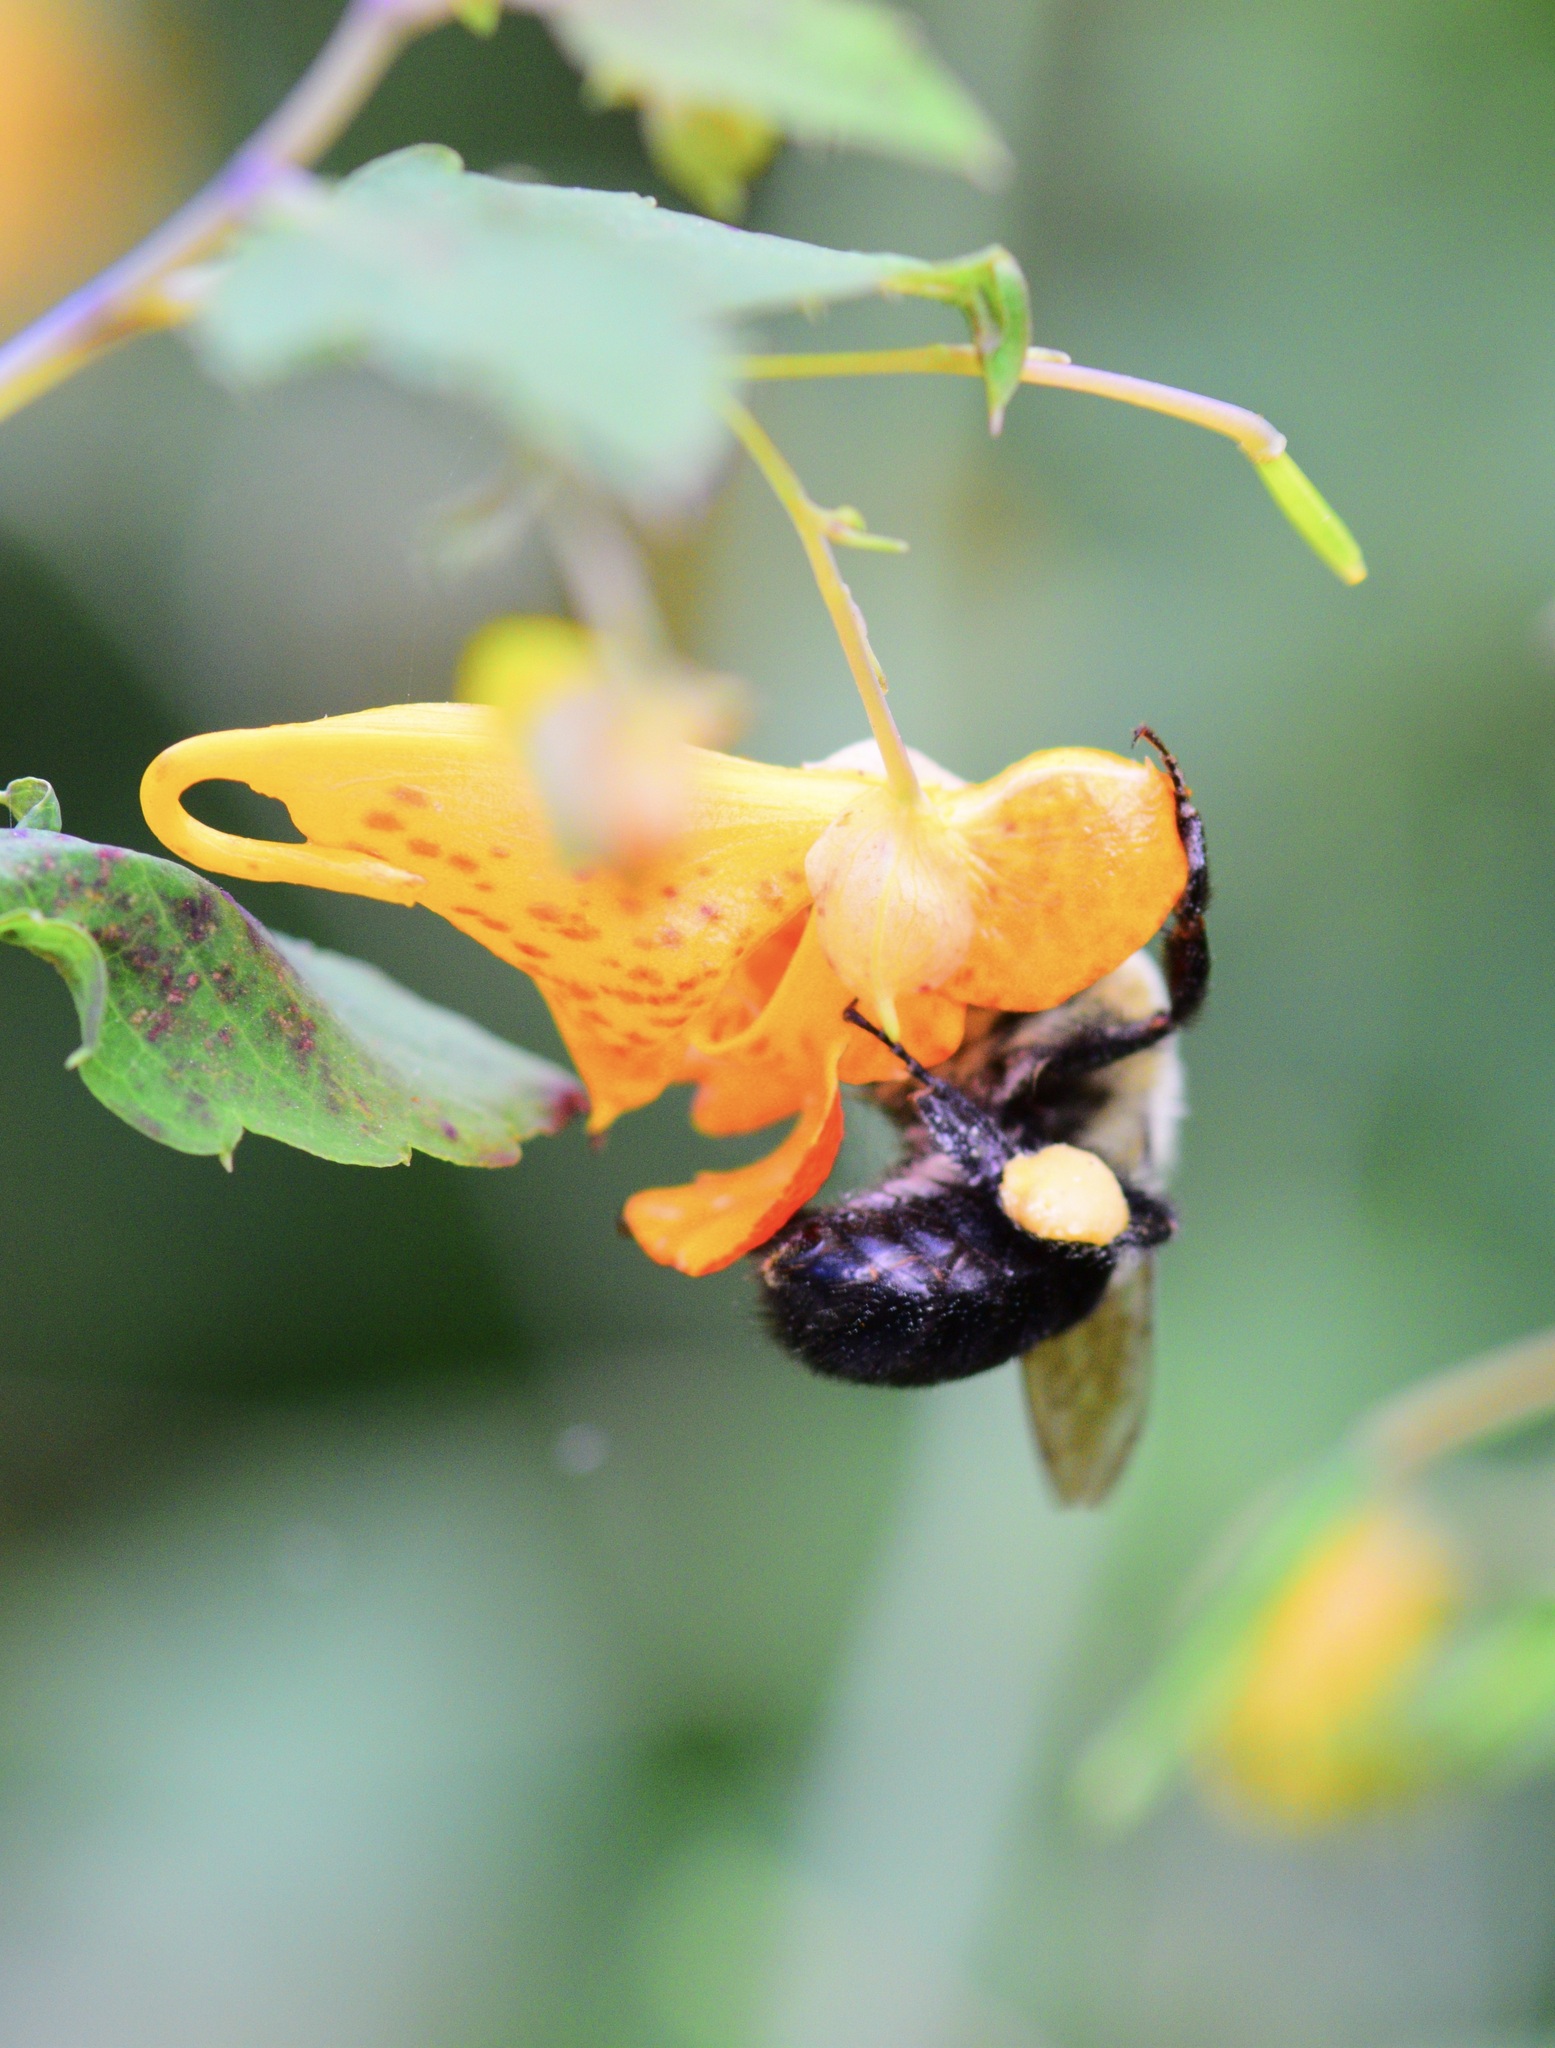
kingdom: Animalia
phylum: Arthropoda
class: Insecta
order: Hymenoptera
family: Apidae
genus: Bombus
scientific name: Bombus impatiens
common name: Common eastern bumble bee
